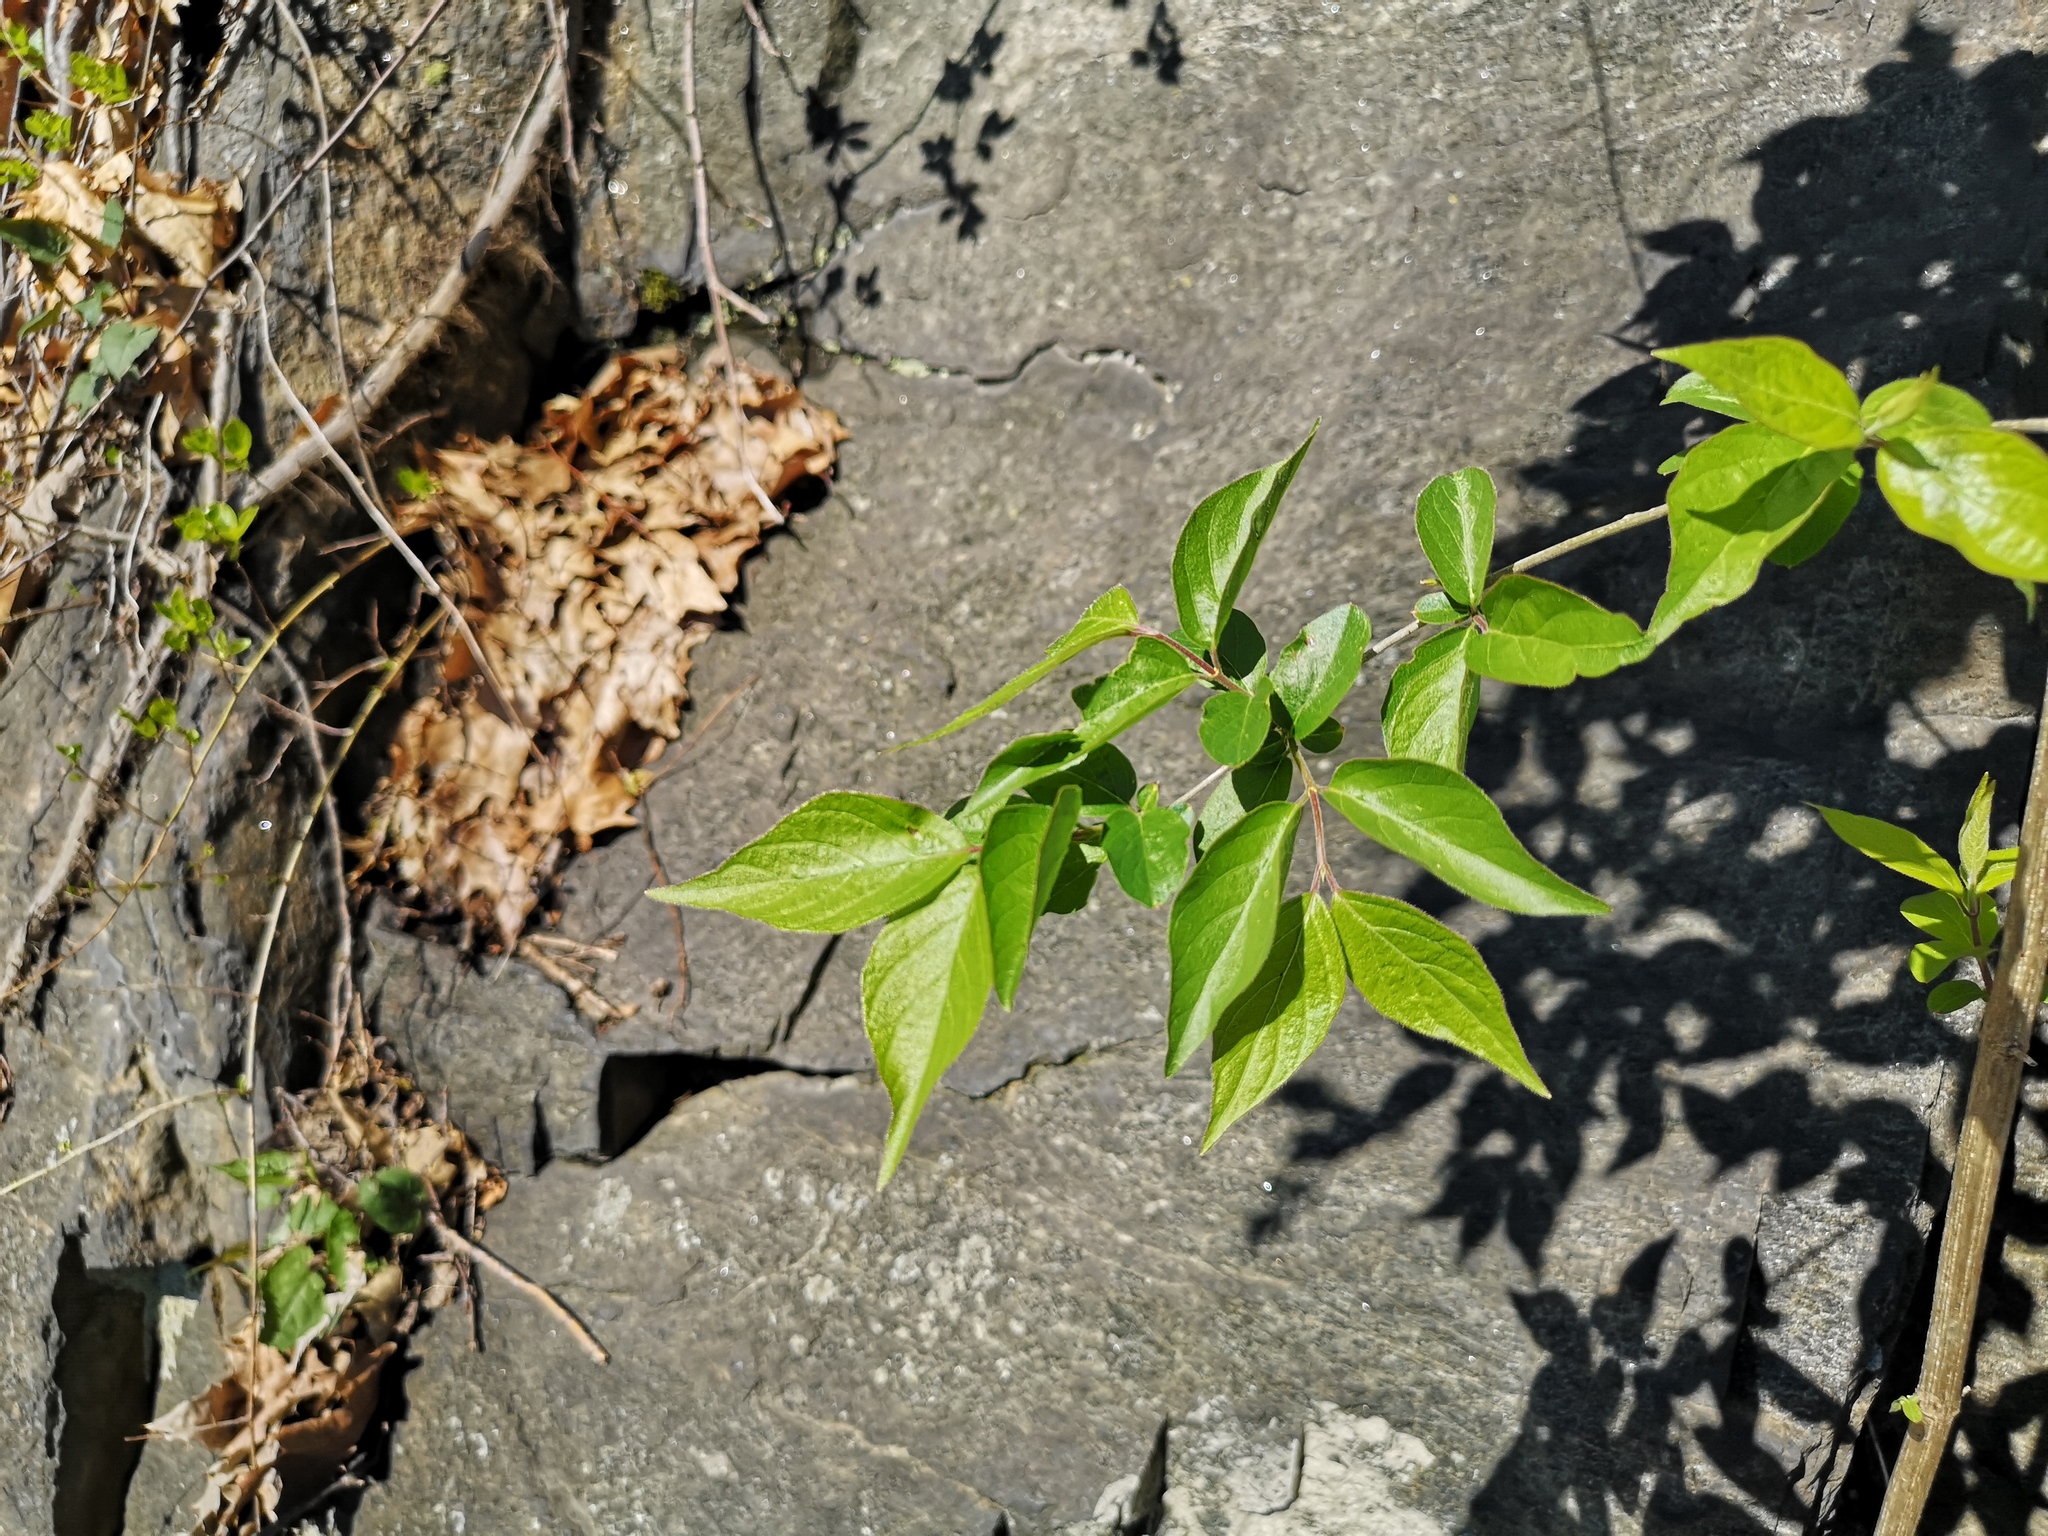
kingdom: Plantae
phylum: Tracheophyta
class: Magnoliopsida
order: Dipsacales
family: Caprifoliaceae
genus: Lonicera
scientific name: Lonicera maackii
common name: Amur honeysuckle
